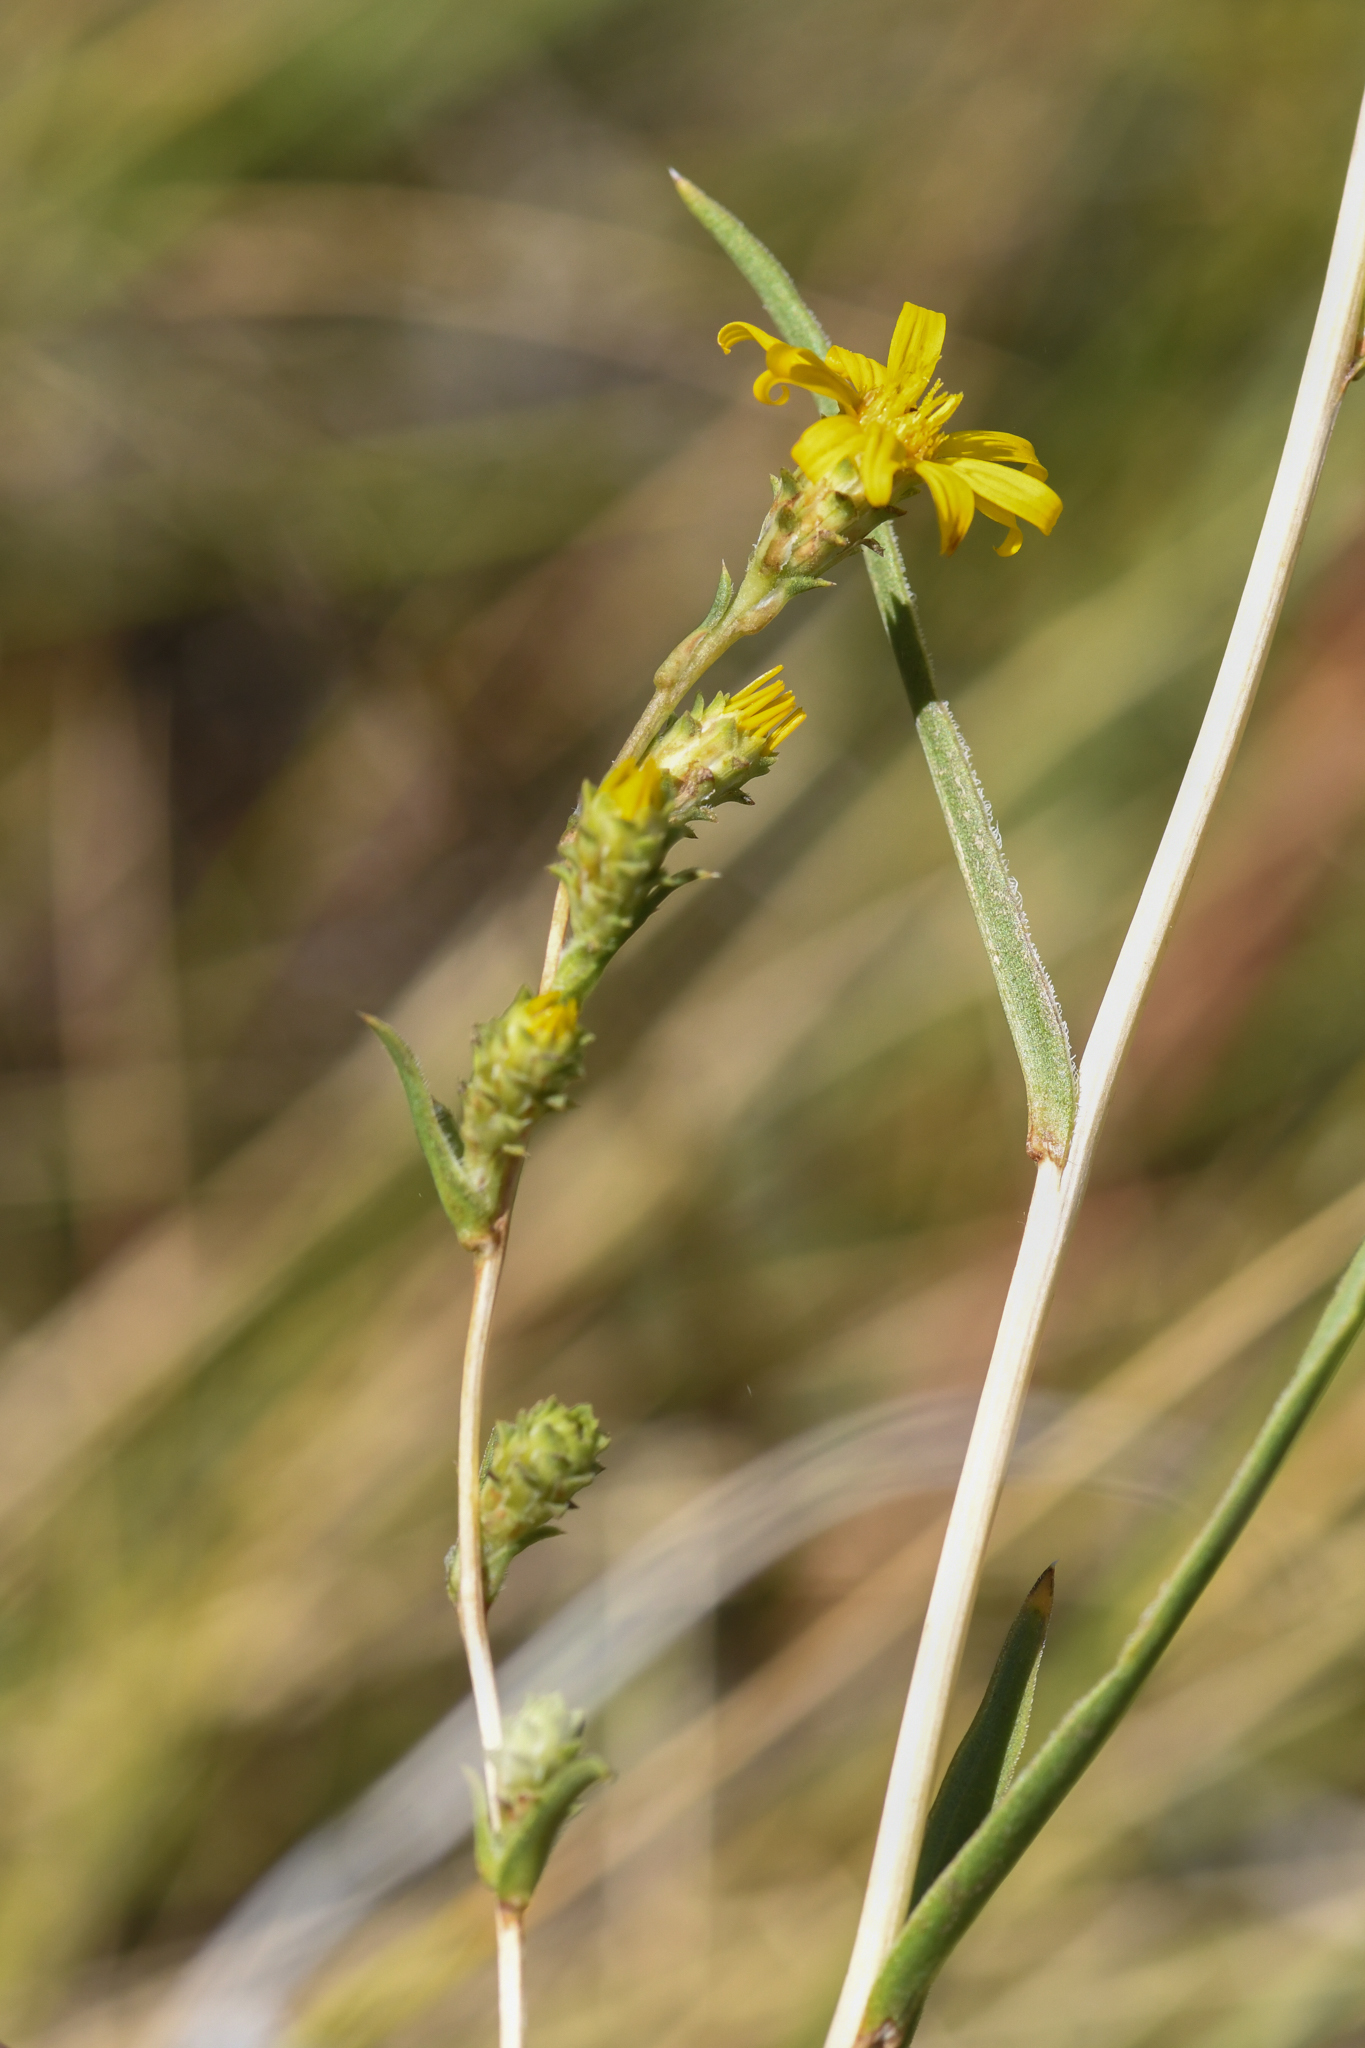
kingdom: Plantae
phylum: Tracheophyta
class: Magnoliopsida
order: Asterales
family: Asteraceae
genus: Pyrrocoma
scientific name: Pyrrocoma racemosa
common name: Clustered goldenweed
